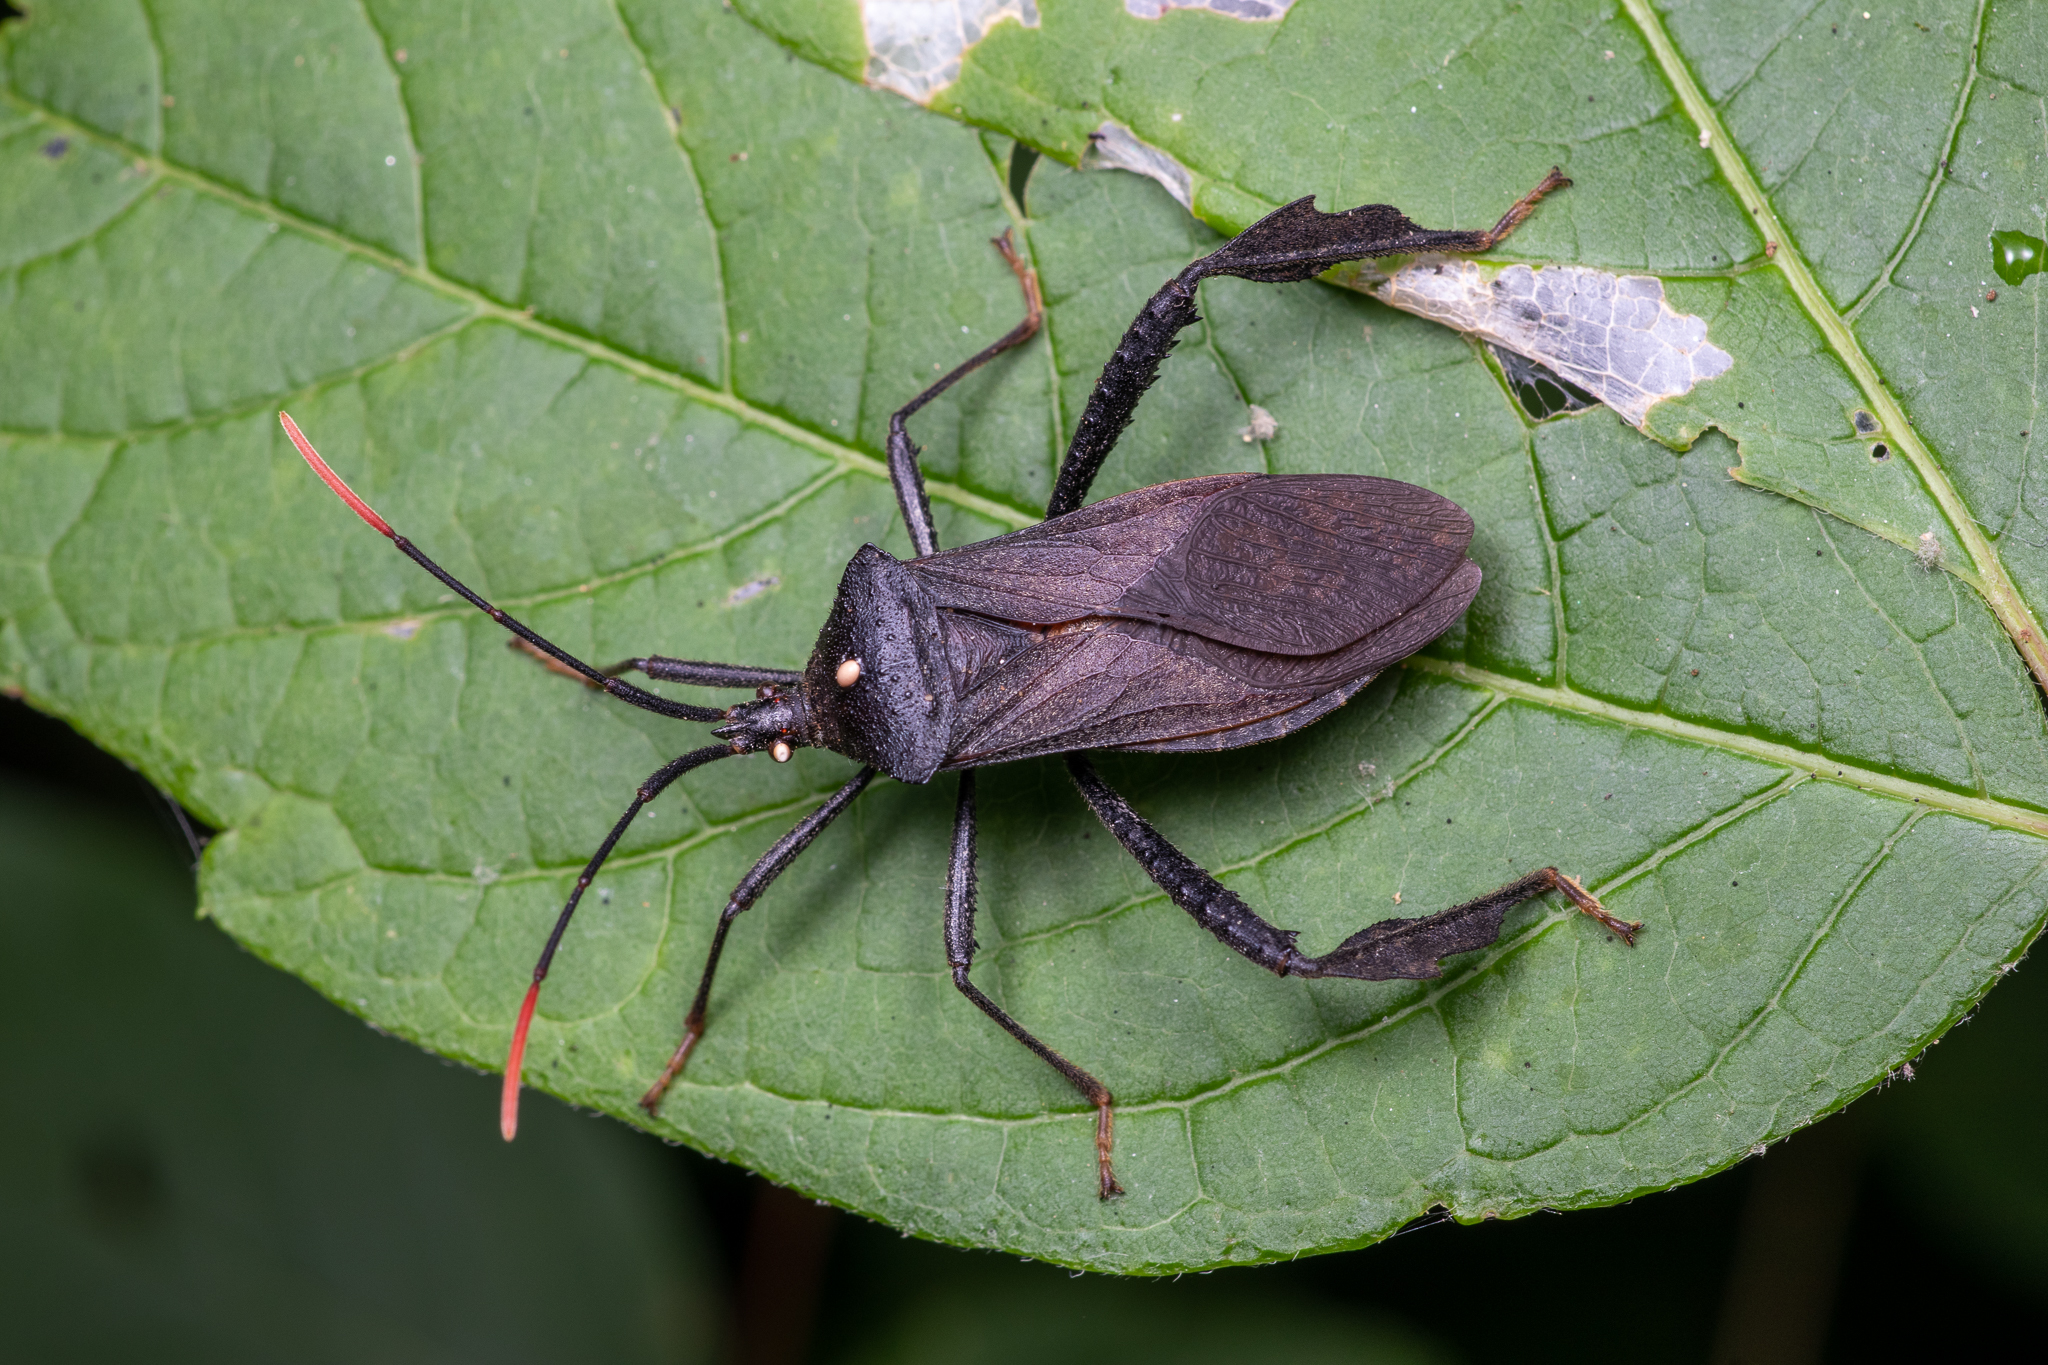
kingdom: Animalia
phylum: Arthropoda
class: Insecta
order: Hemiptera
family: Coreidae
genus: Acanthocephala
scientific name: Acanthocephala terminalis
